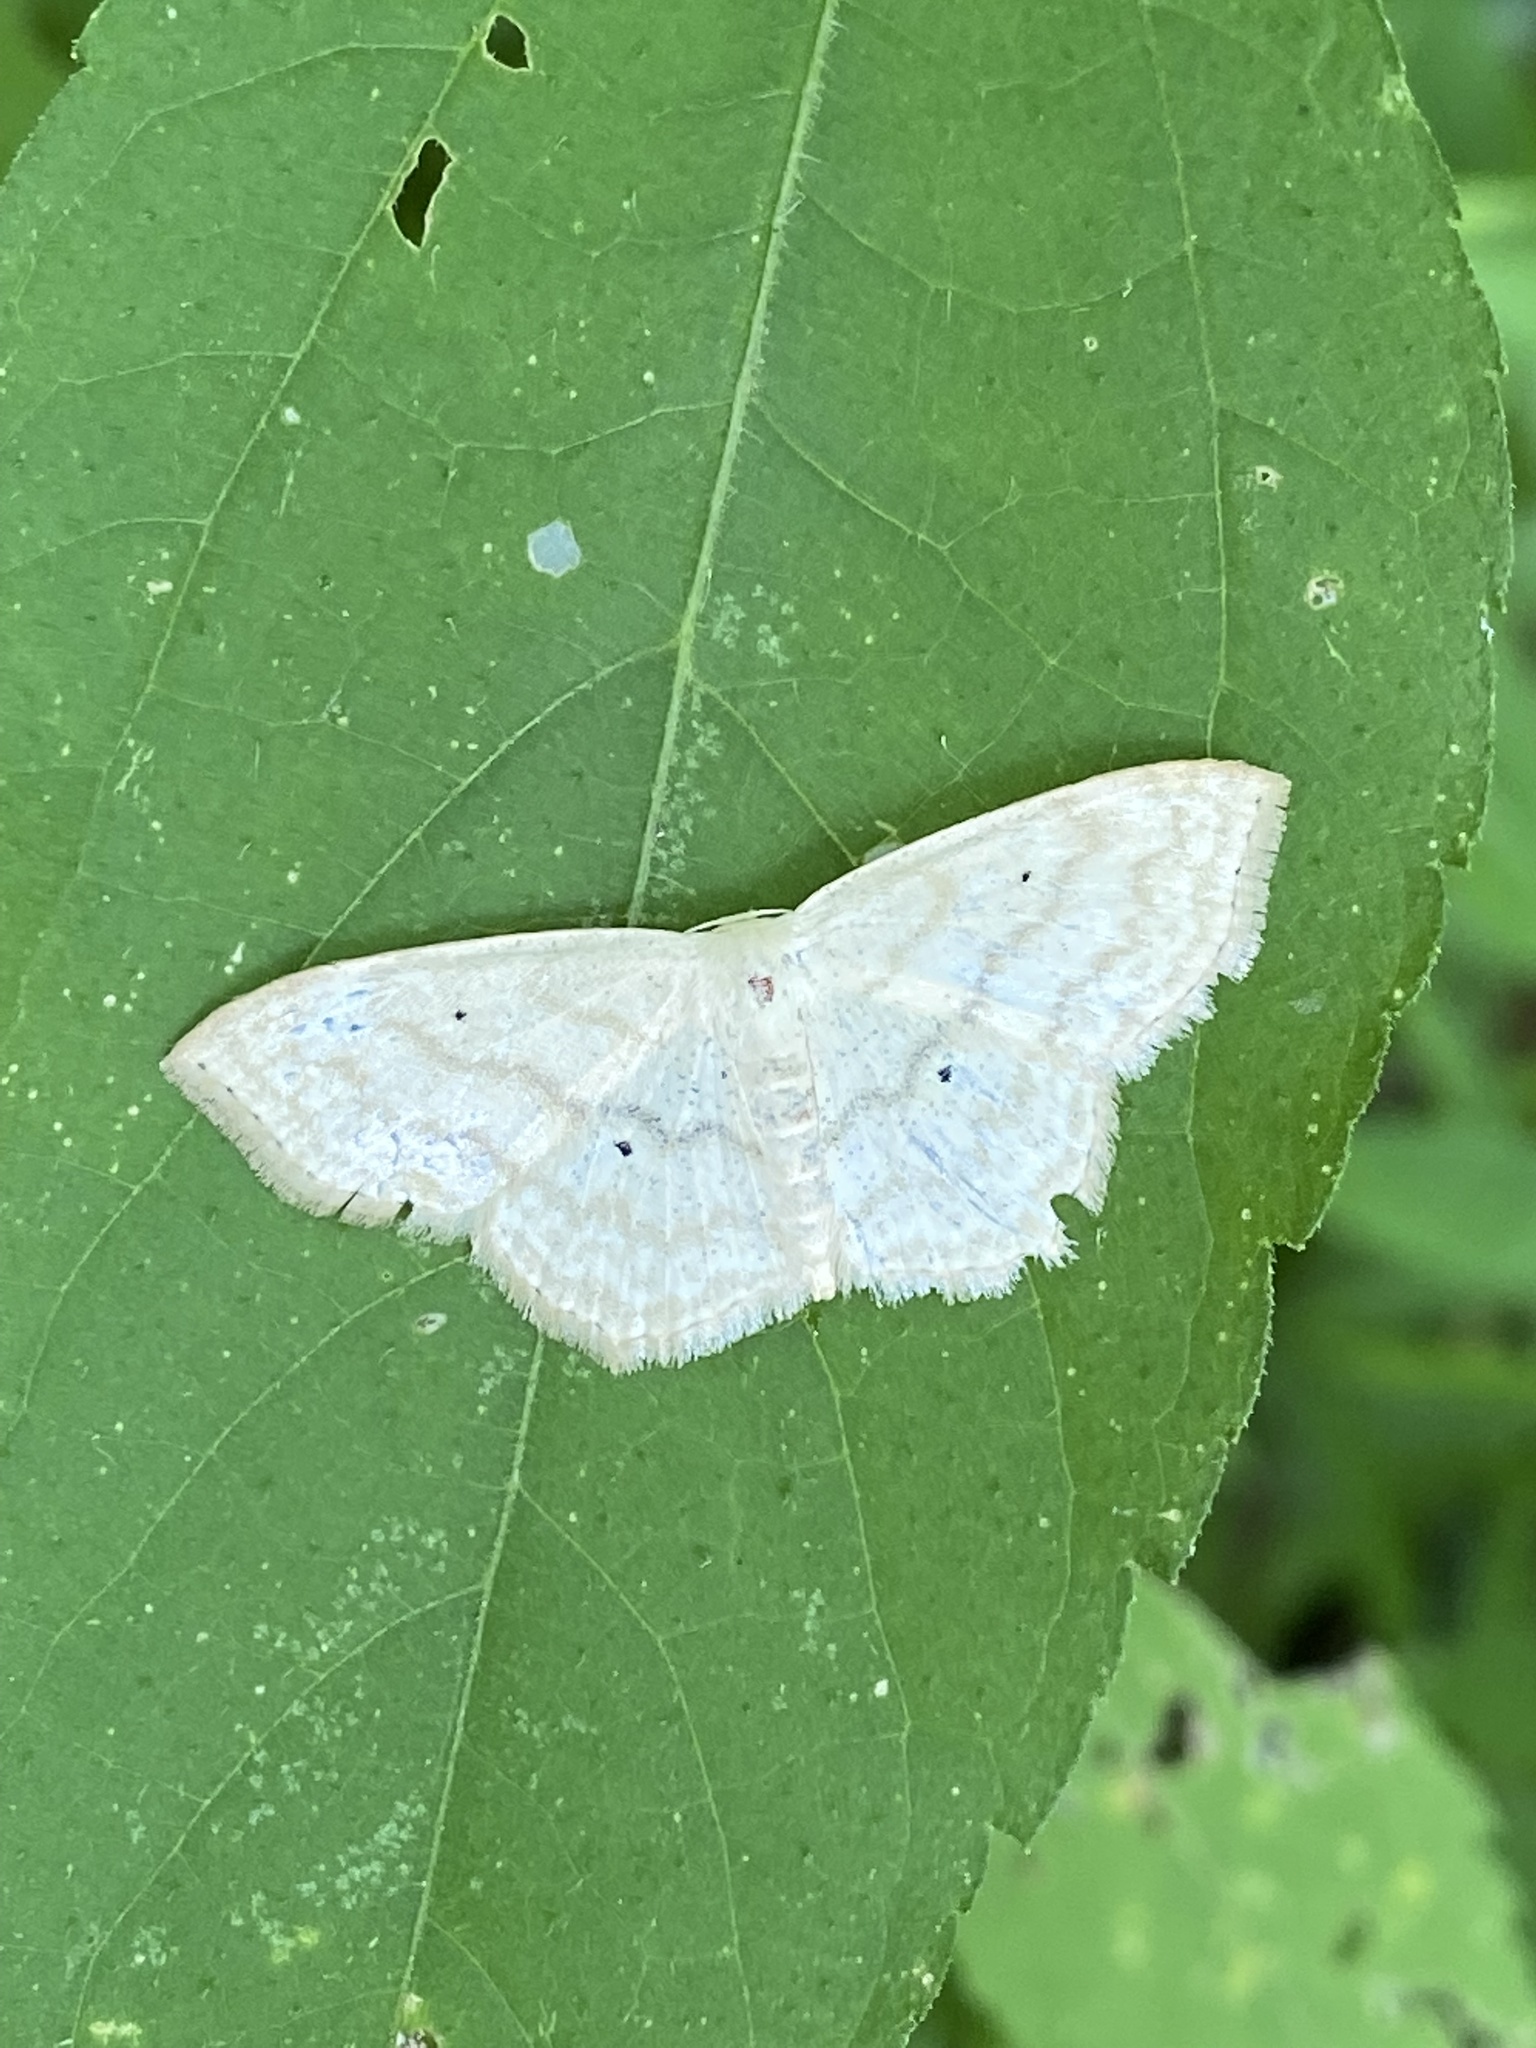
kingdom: Animalia
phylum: Arthropoda
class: Insecta
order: Lepidoptera
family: Geometridae
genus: Scopula
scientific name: Scopula limboundata
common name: Large lace border
